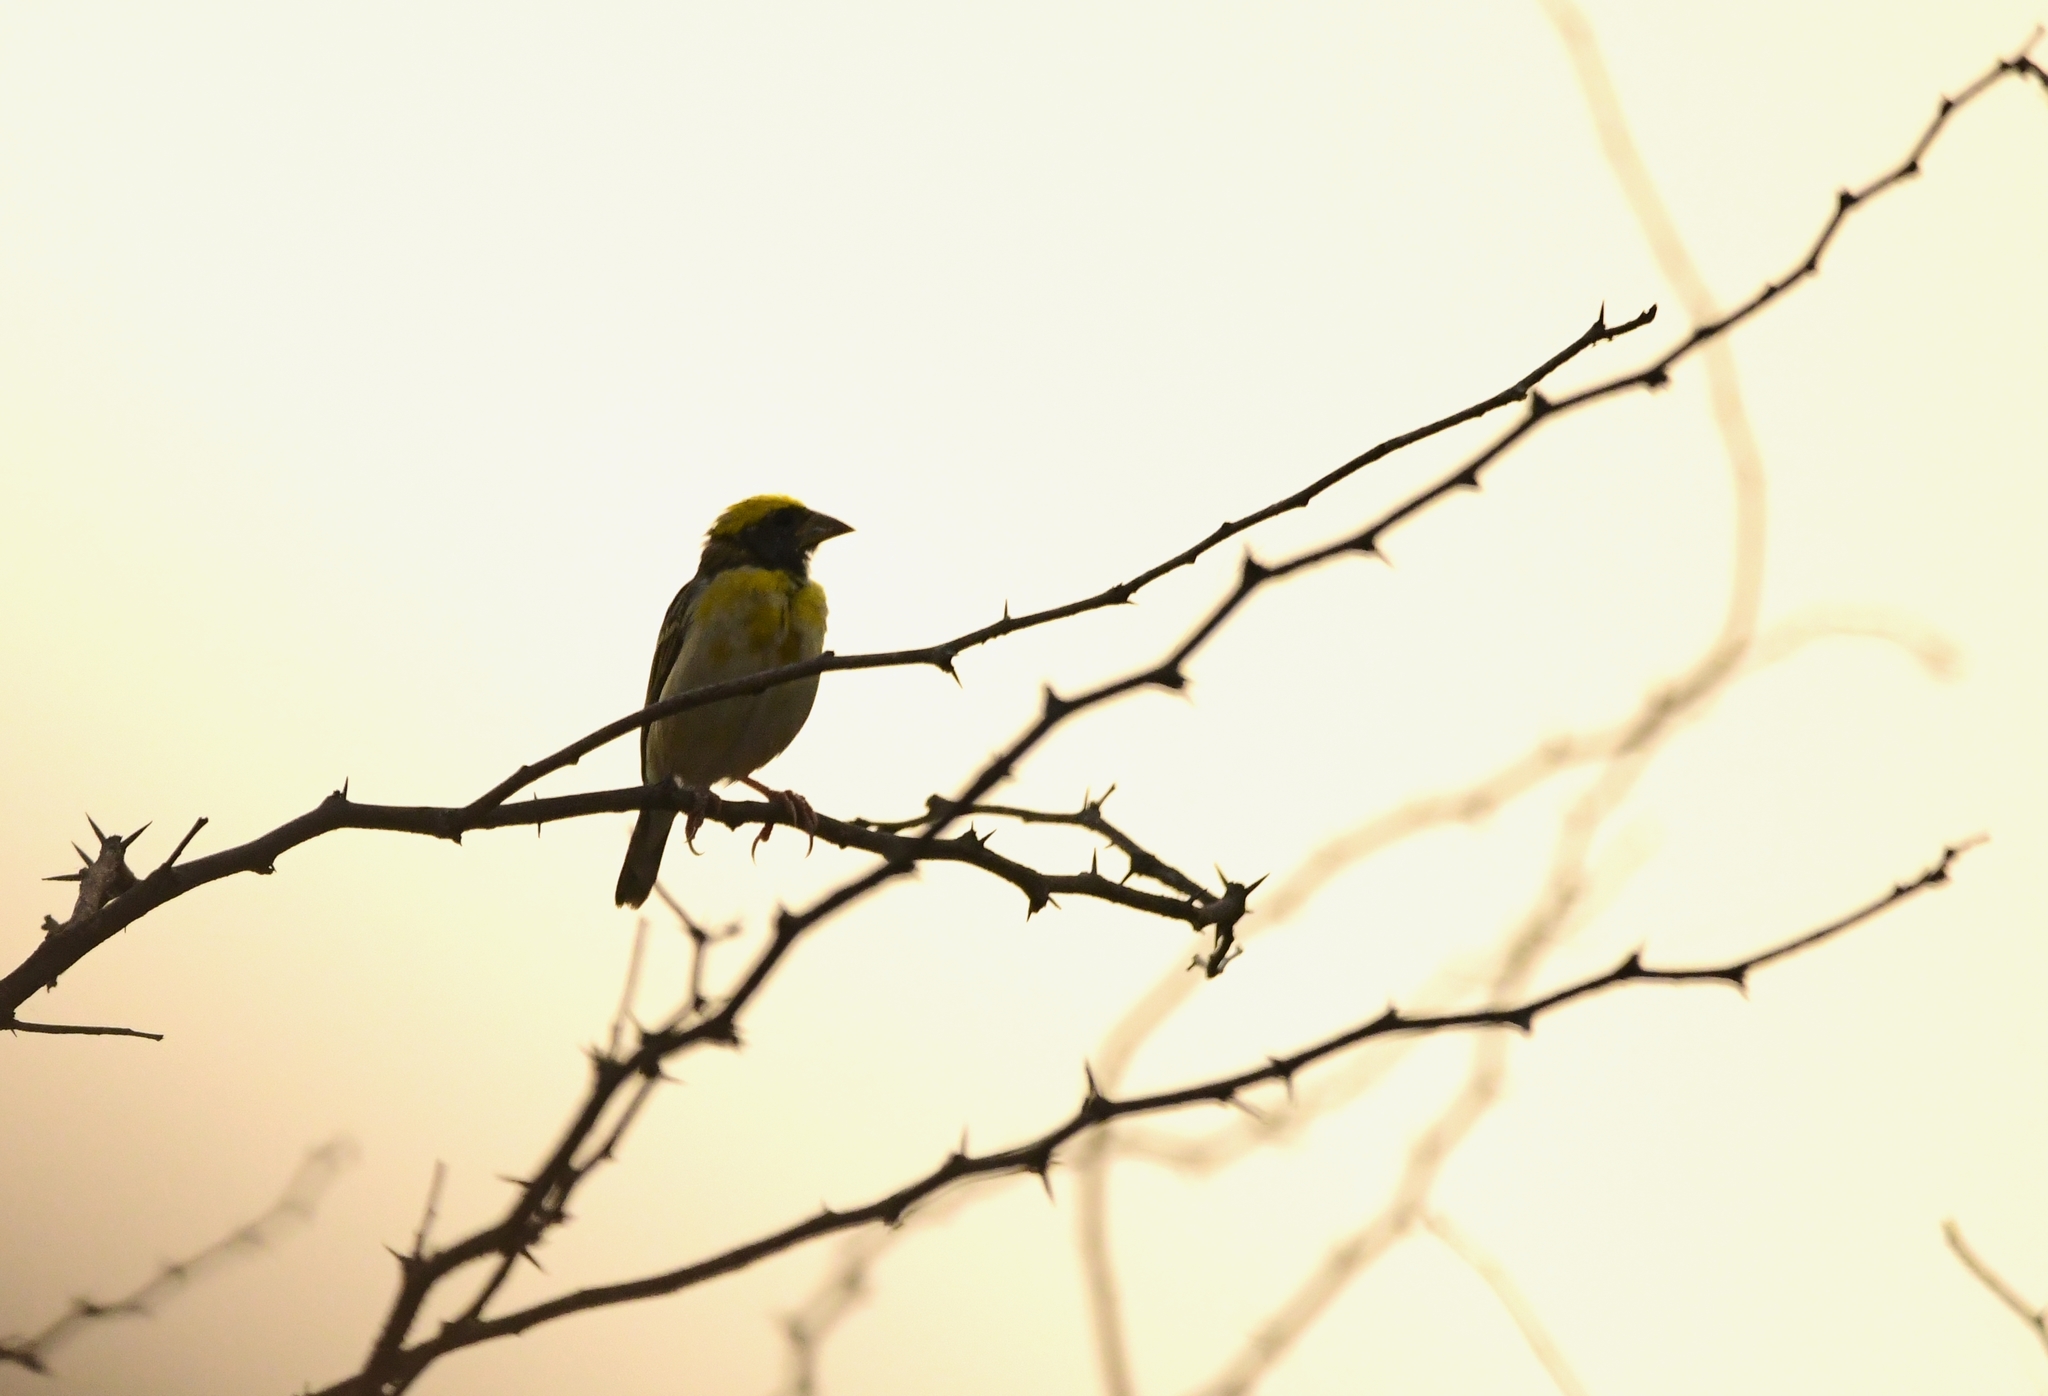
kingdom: Animalia
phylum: Chordata
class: Aves
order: Passeriformes
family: Ploceidae
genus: Ploceus
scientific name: Ploceus philippinus
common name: Baya weaver
